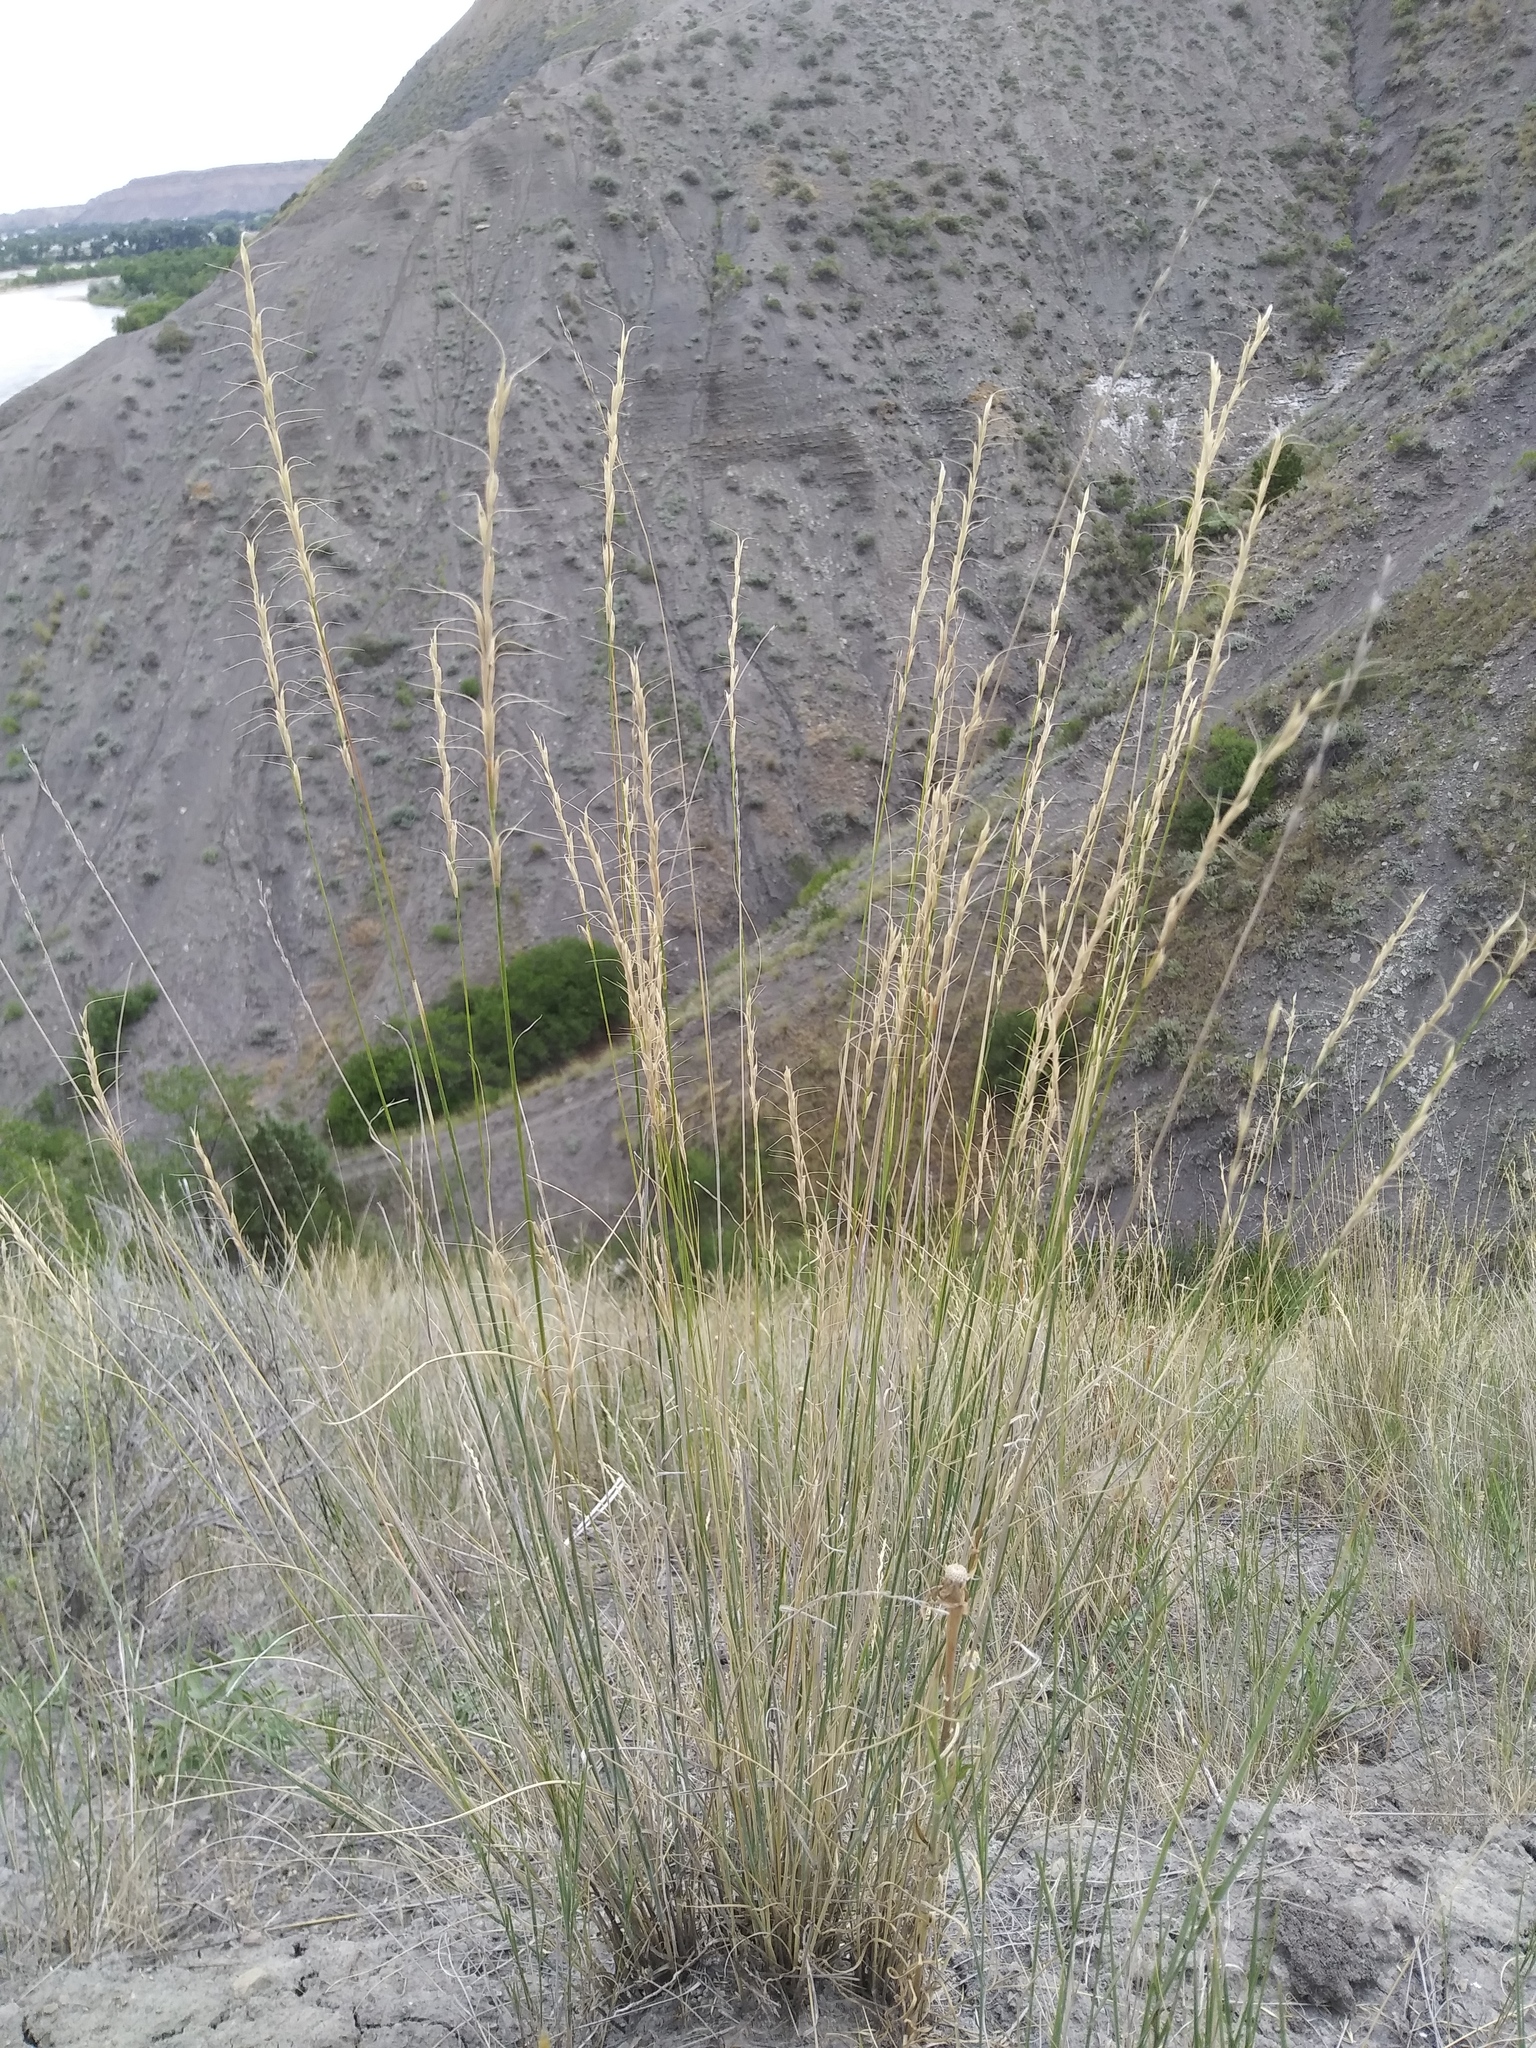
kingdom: Plantae
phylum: Tracheophyta
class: Liliopsida
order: Poales
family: Poaceae
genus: Pseudoroegneria
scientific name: Pseudoroegneria spicata
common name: Bluebunch wheatgrass
